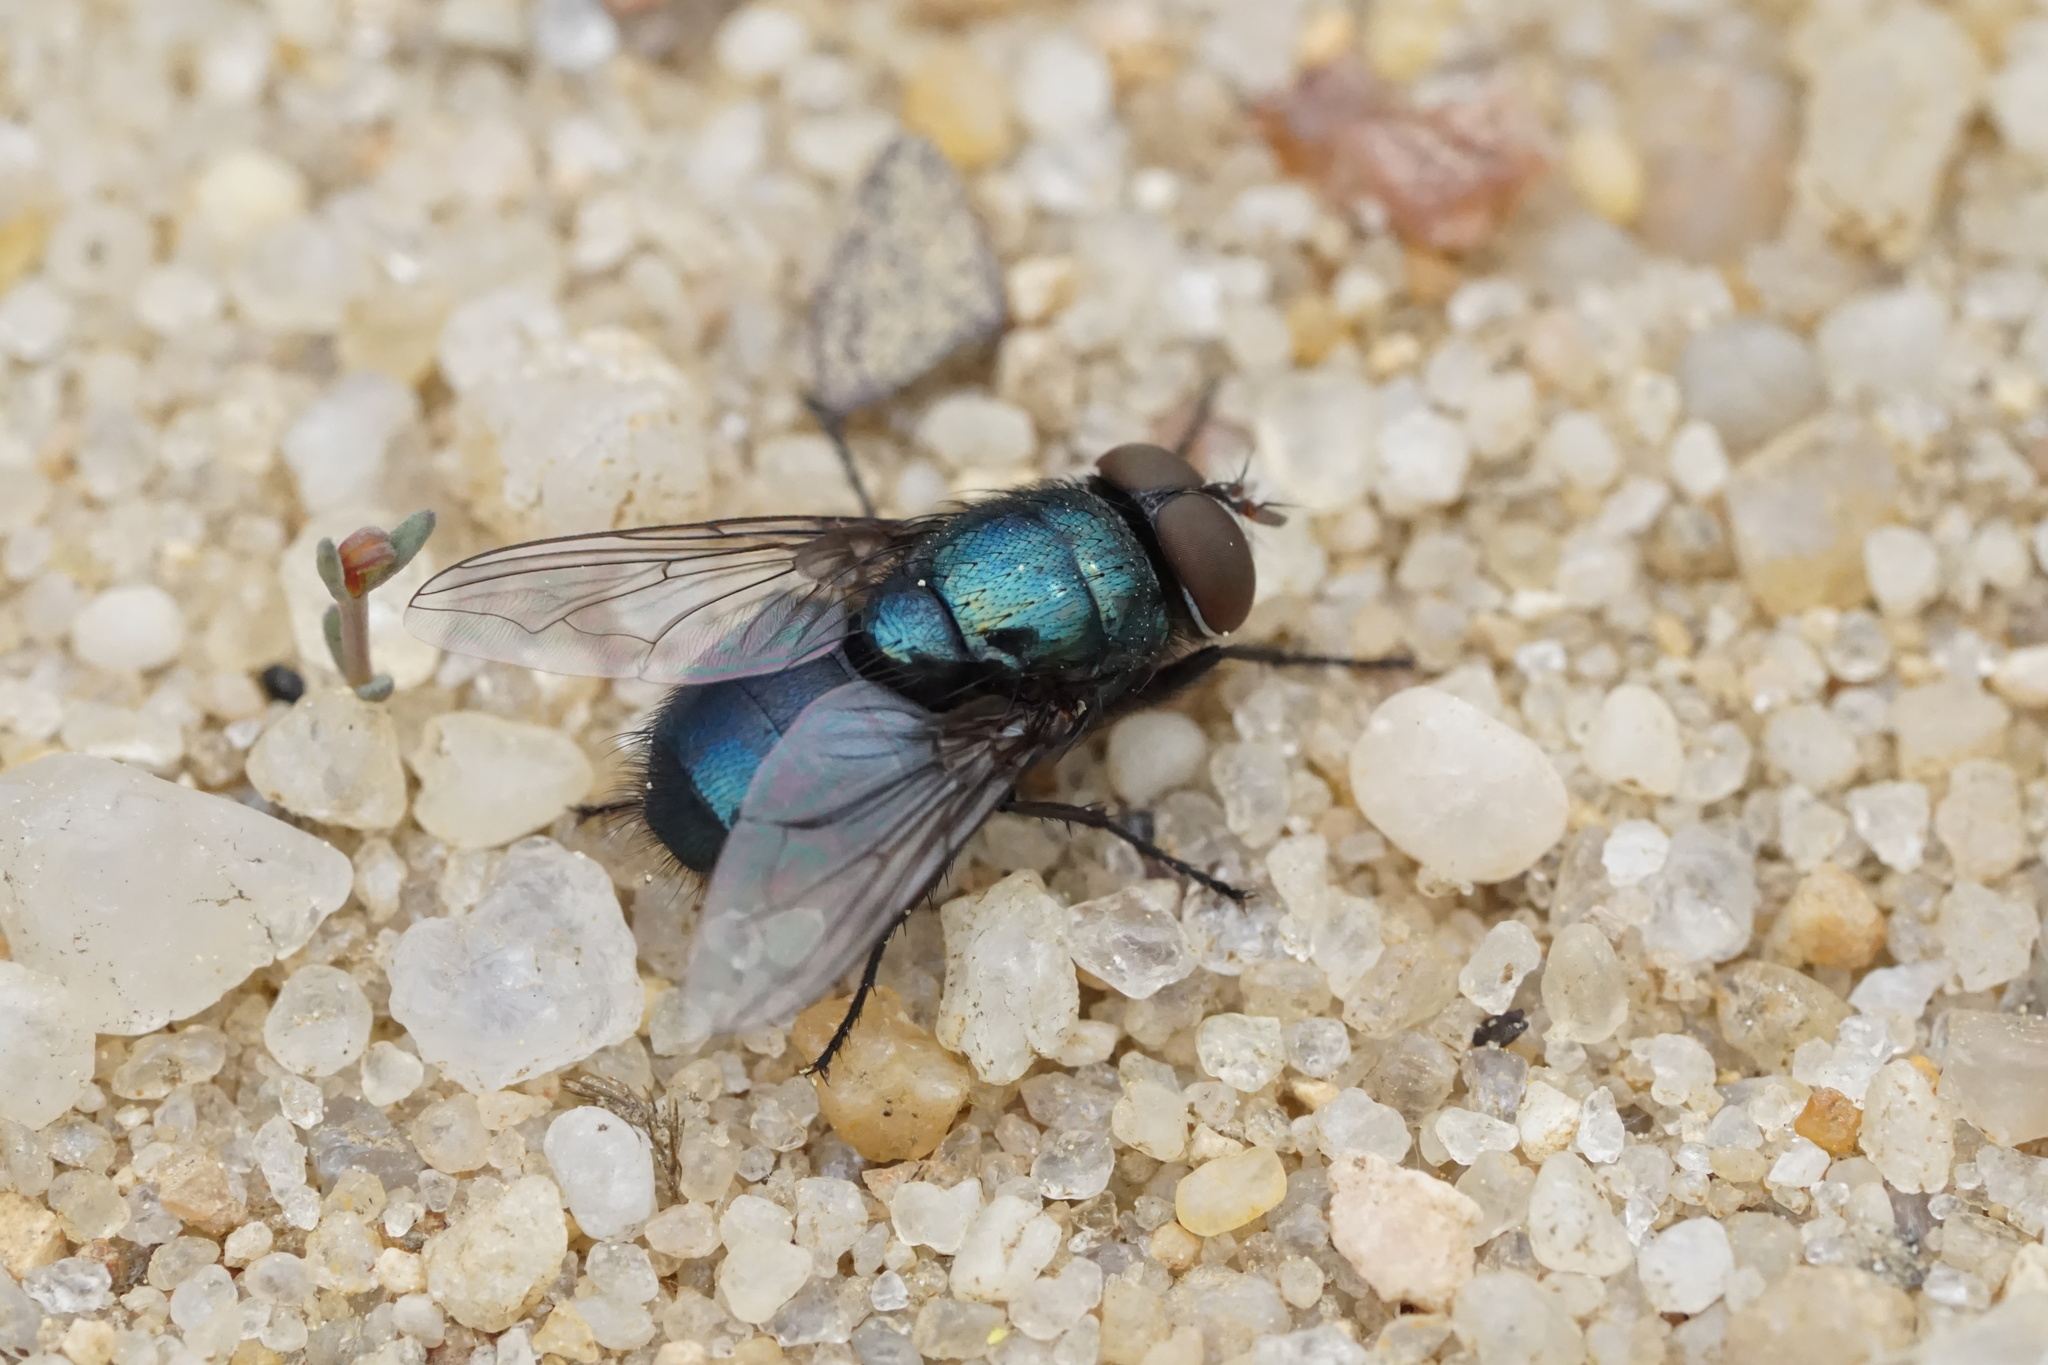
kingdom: Animalia
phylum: Arthropoda
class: Insecta
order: Diptera
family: Calliphoridae
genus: Phormia
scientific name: Phormia regina
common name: Black blow fly
